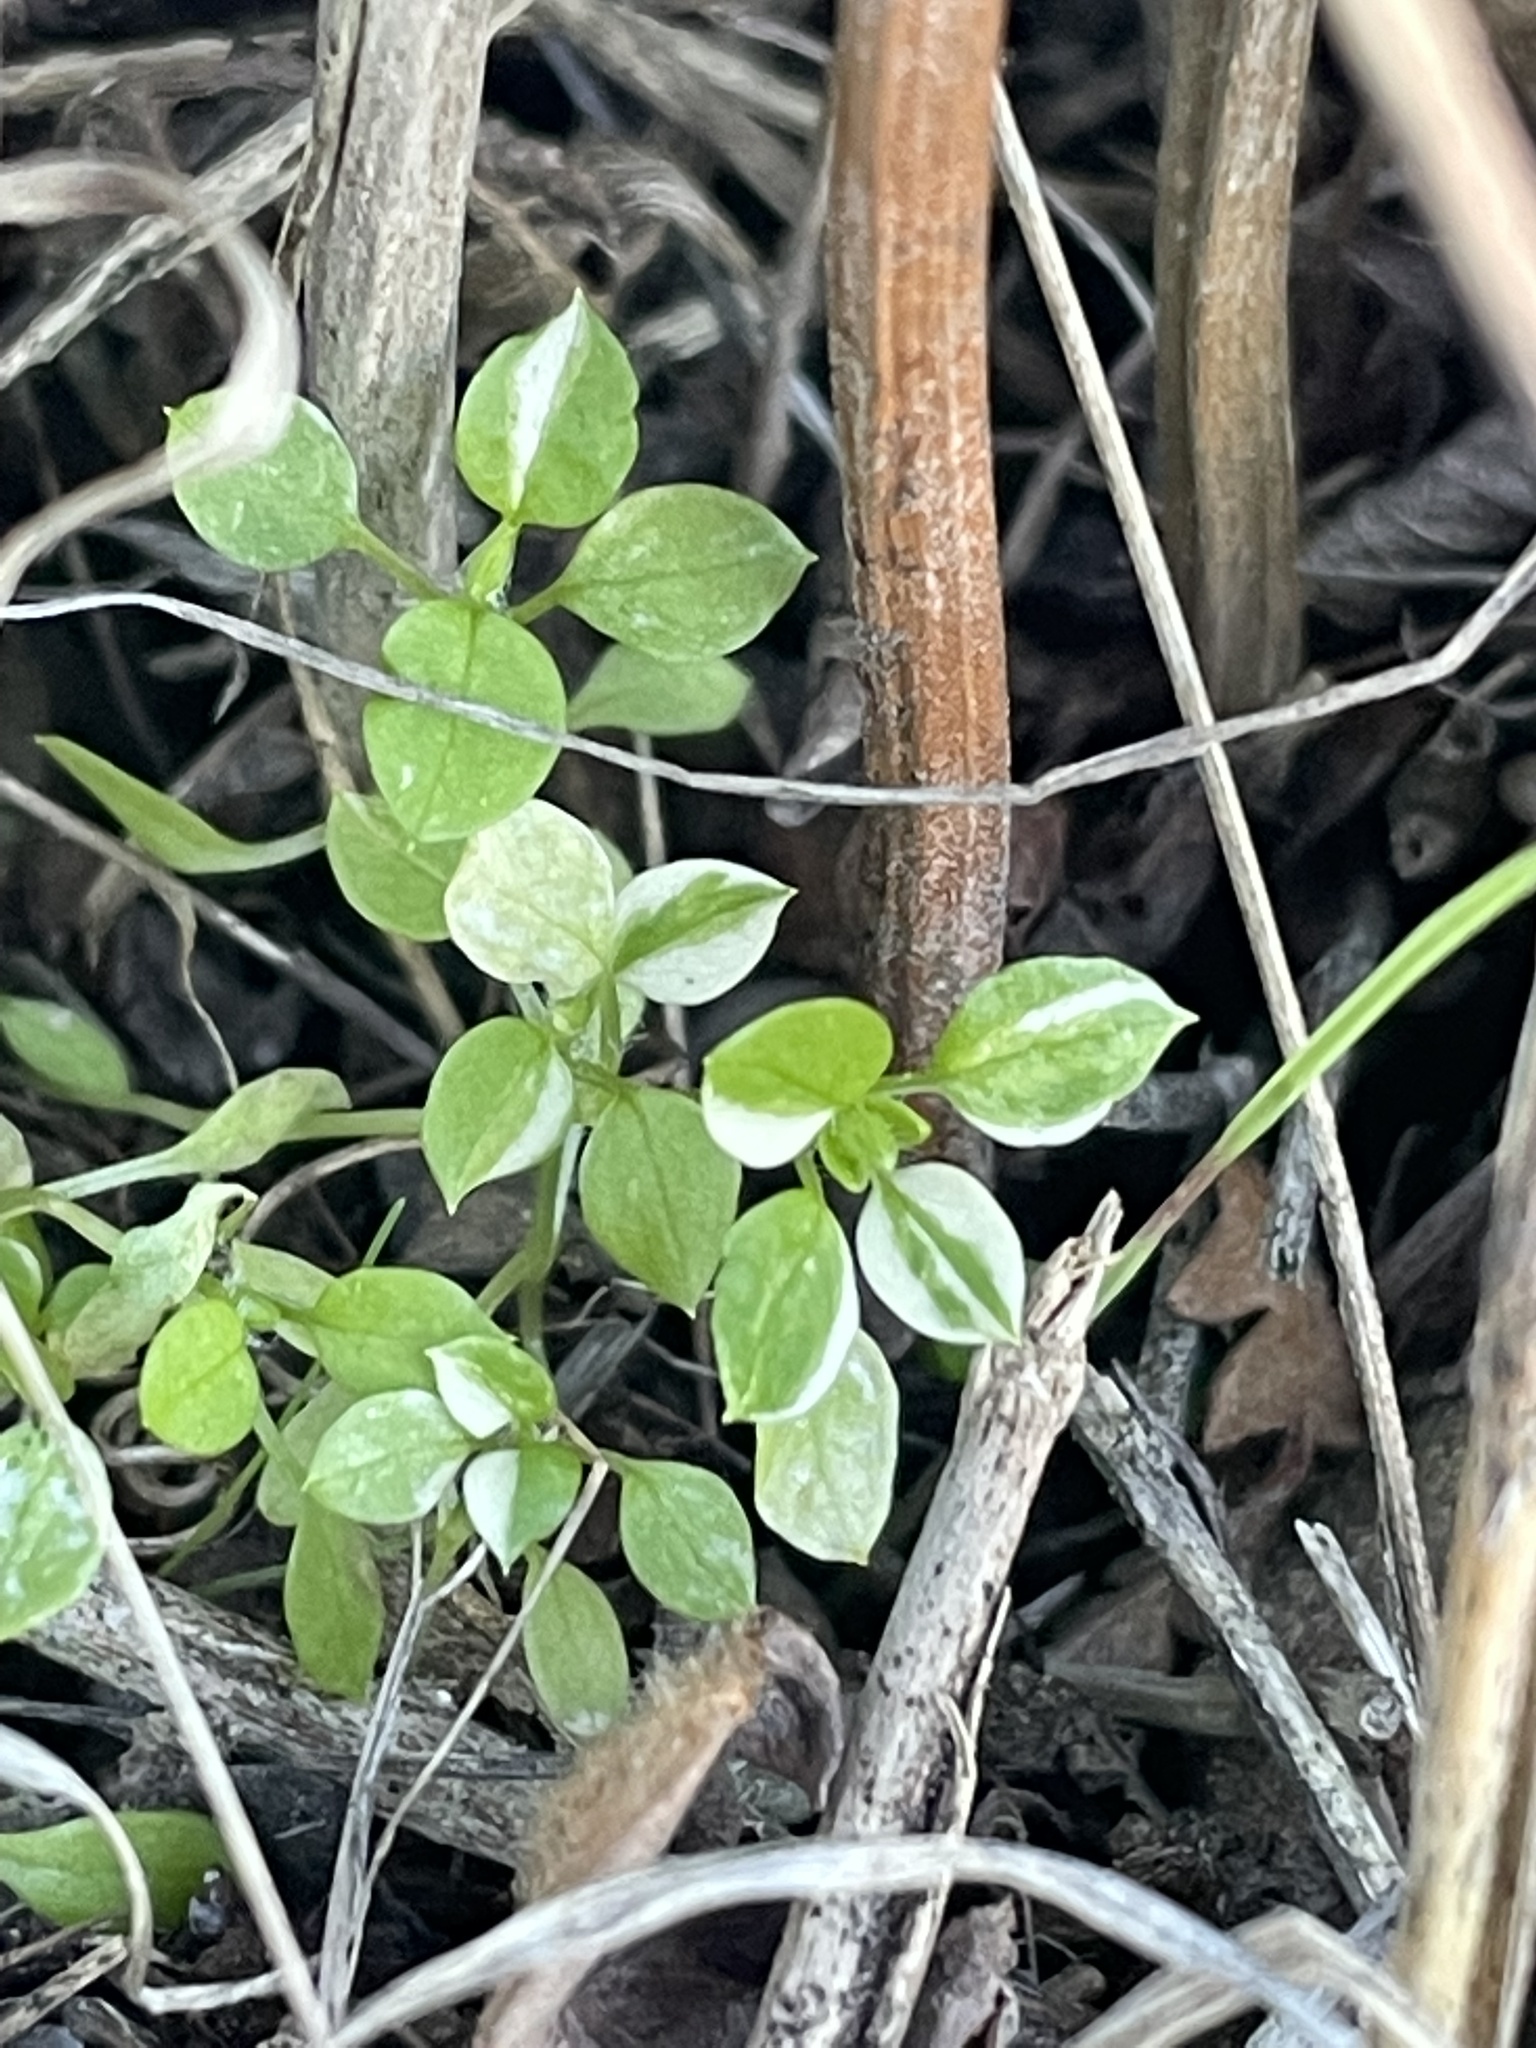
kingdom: Plantae
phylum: Tracheophyta
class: Magnoliopsida
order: Caryophyllales
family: Caryophyllaceae
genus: Stellaria
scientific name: Stellaria media
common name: Common chickweed
